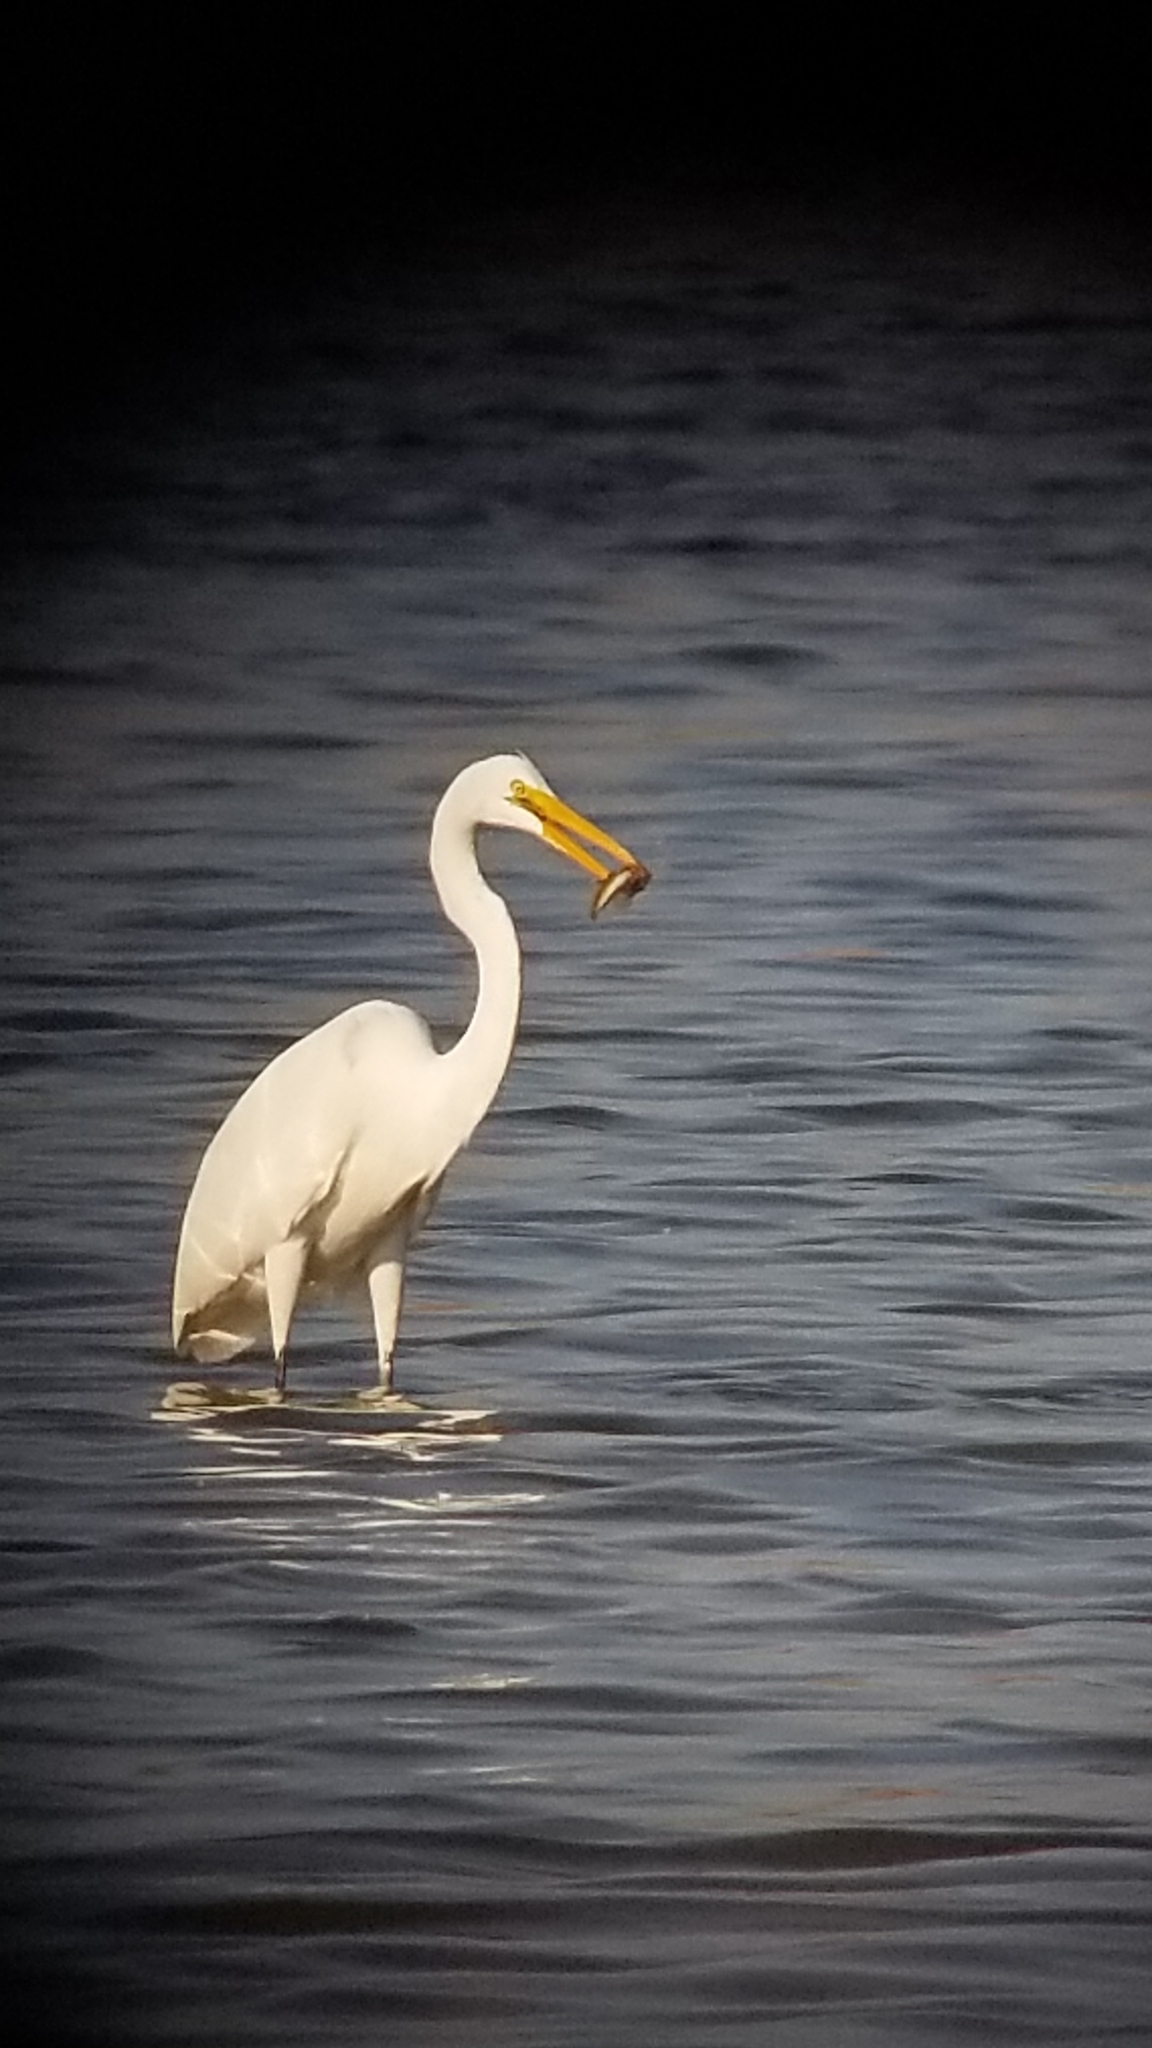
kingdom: Animalia
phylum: Chordata
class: Aves
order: Pelecaniformes
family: Ardeidae
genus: Ardea
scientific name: Ardea alba
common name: Great egret
